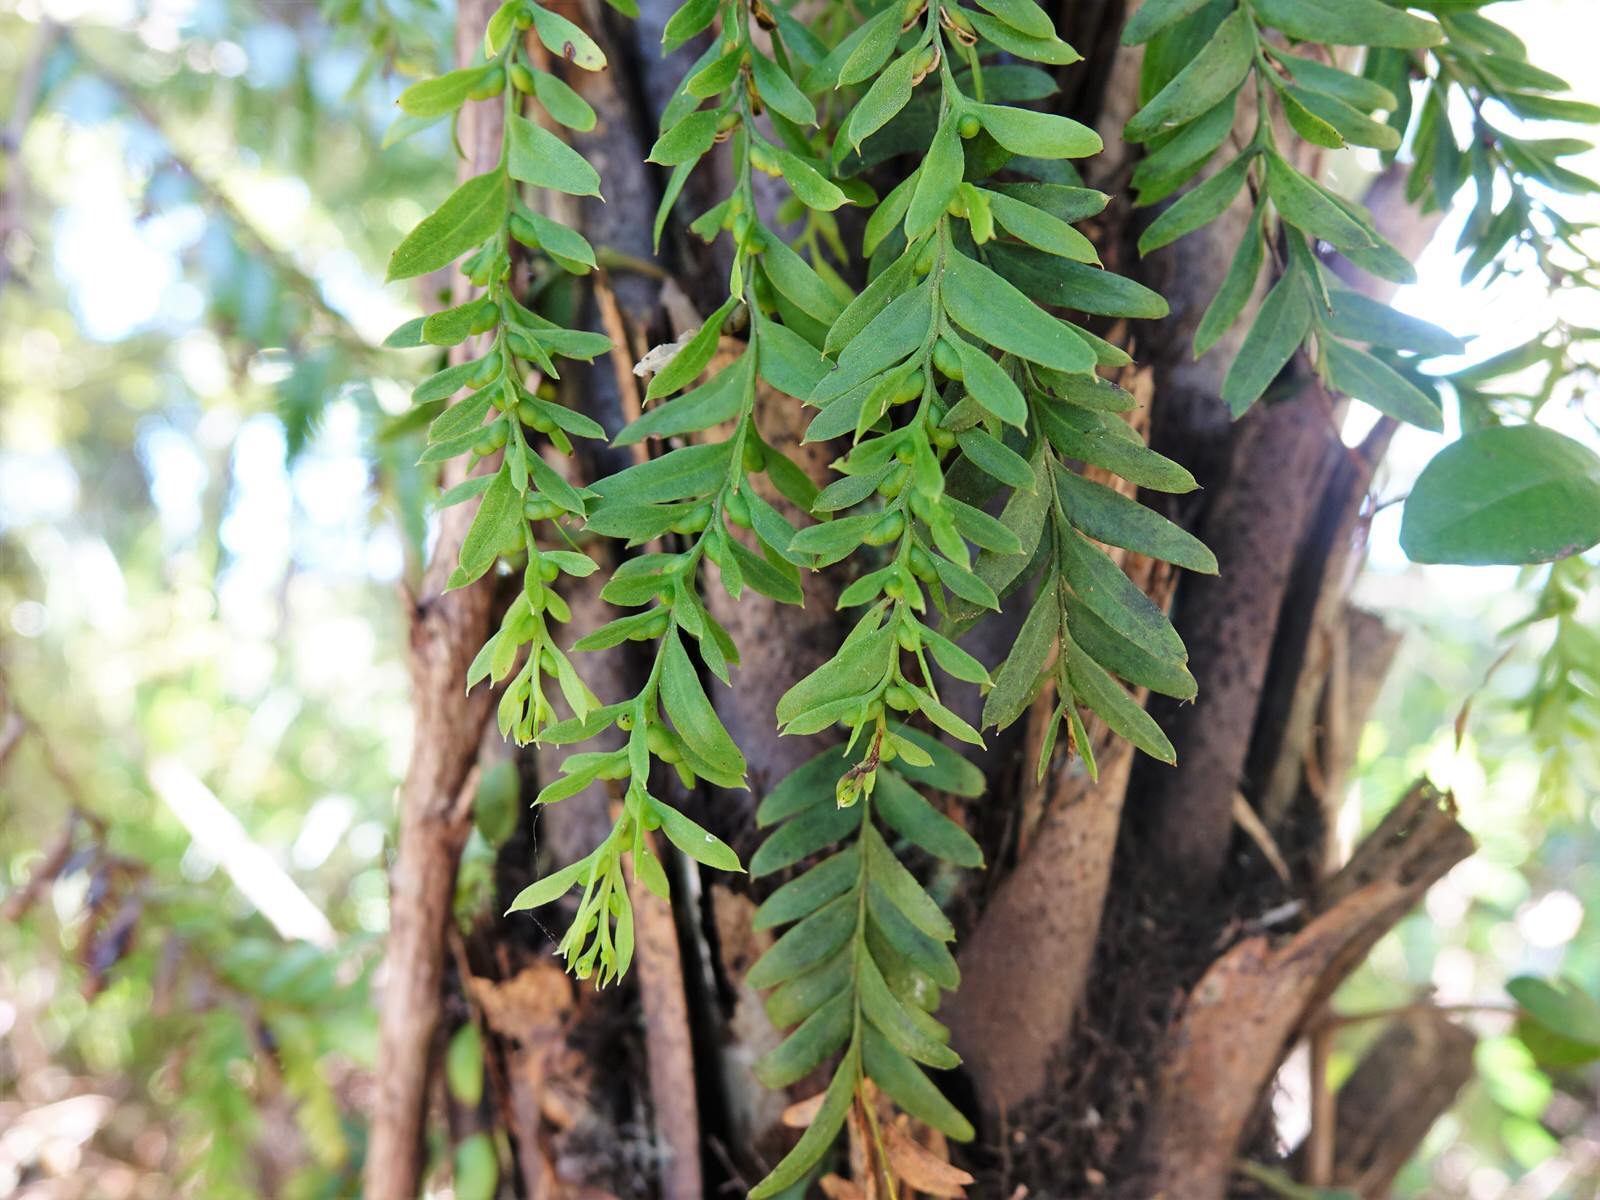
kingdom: Plantae
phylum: Tracheophyta
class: Polypodiopsida
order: Psilotales
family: Psilotaceae
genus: Tmesipteris
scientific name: Tmesipteris elongata
